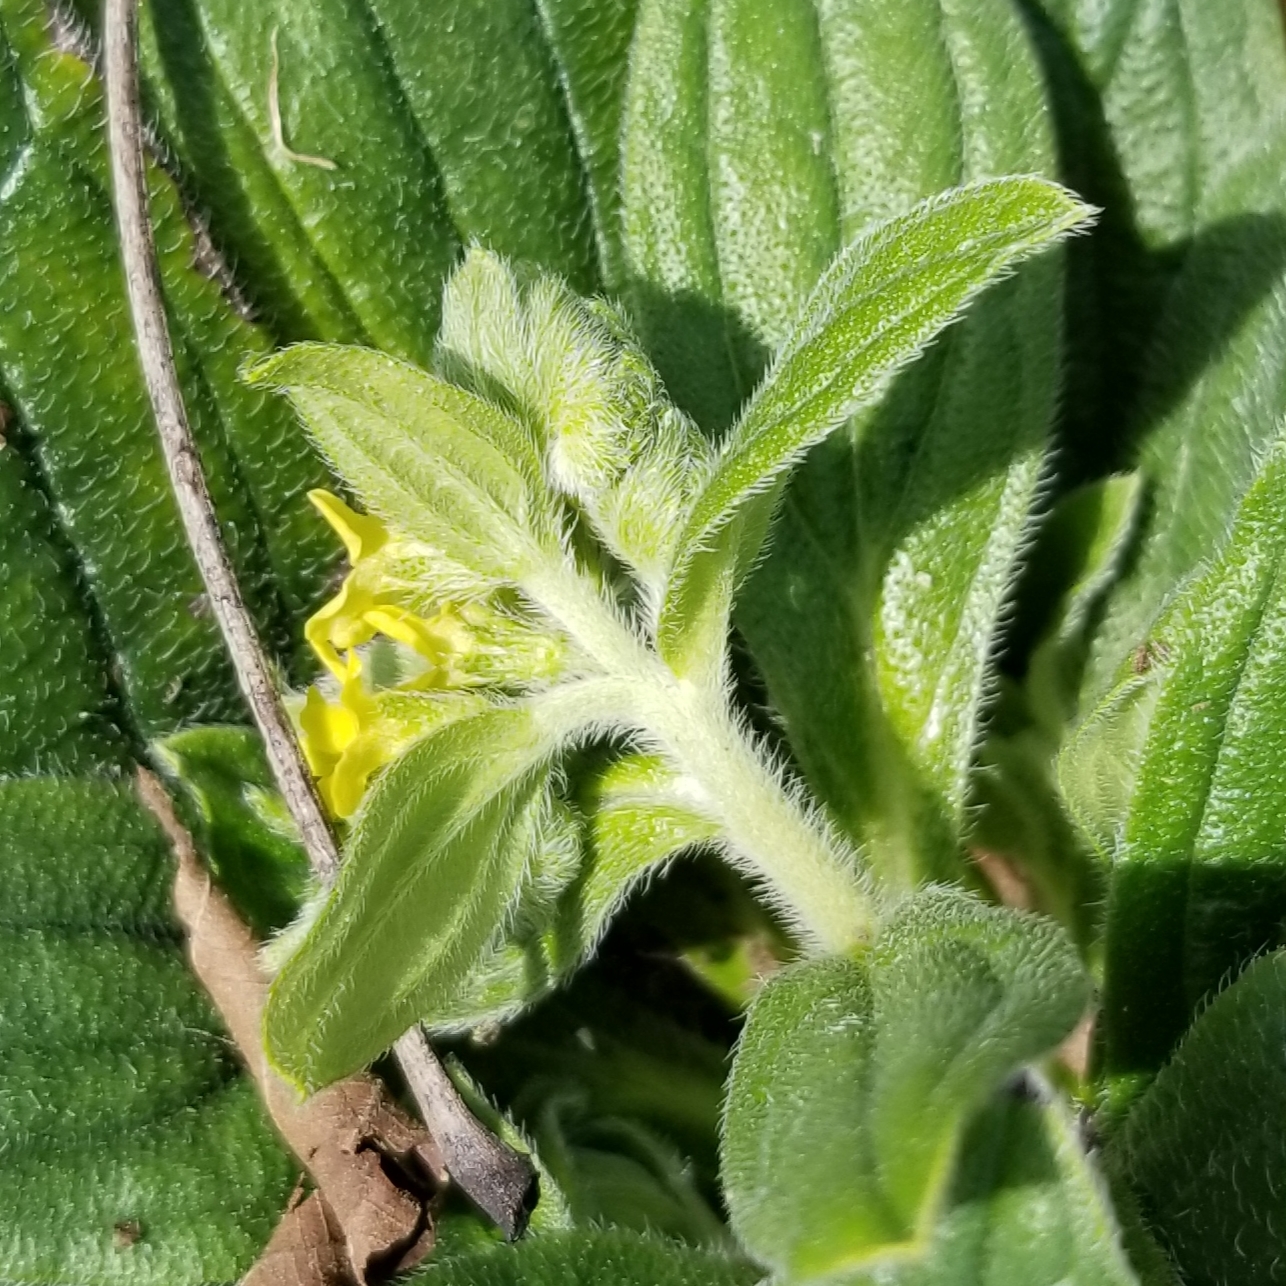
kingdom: Plantae
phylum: Tracheophyta
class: Magnoliopsida
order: Boraginales
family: Boraginaceae
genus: Lithospermum
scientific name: Lithospermum tuberosum
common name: Southern stoneseed
